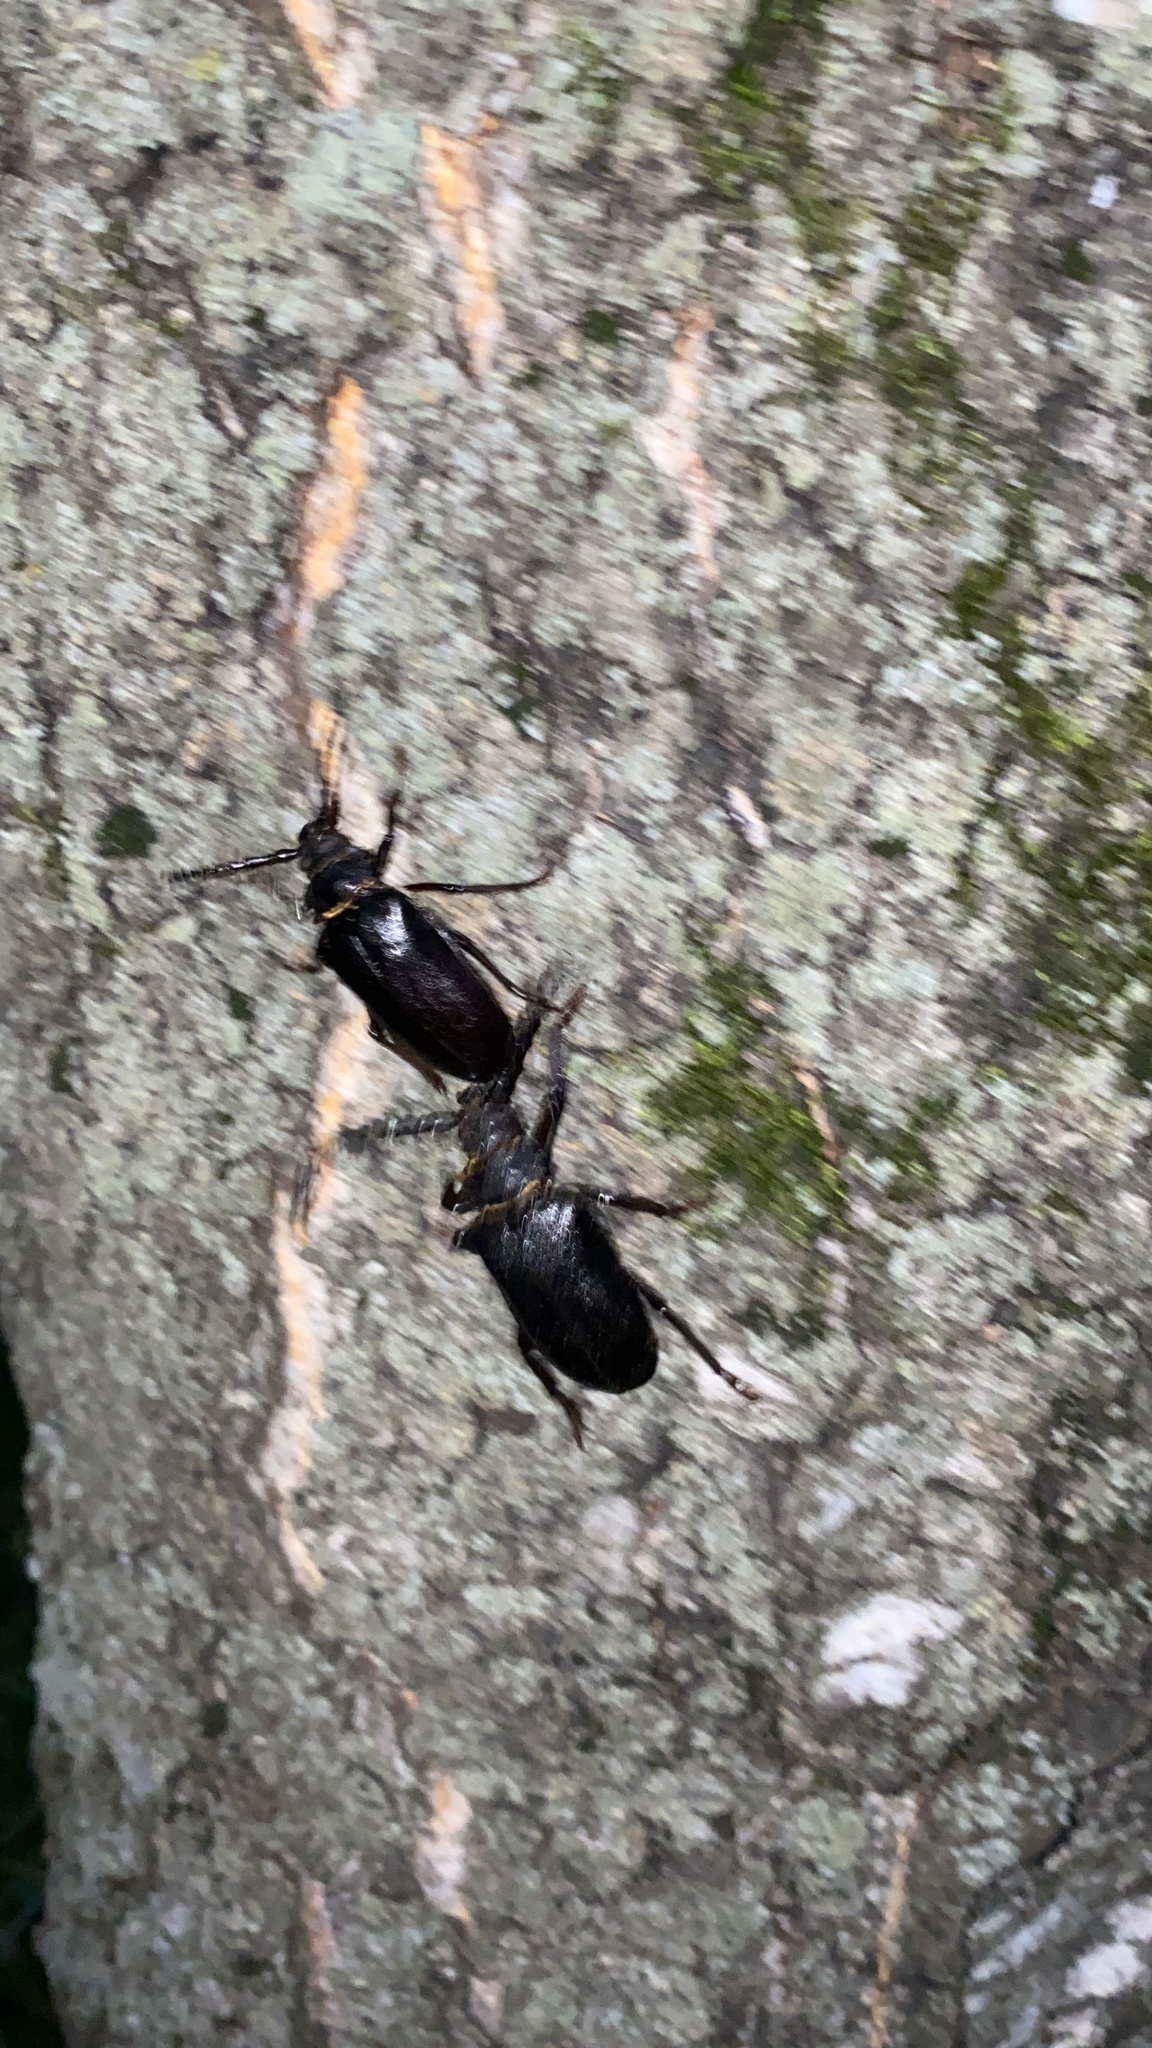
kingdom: Animalia
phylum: Arthropoda
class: Insecta
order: Coleoptera
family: Cerambycidae
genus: Prionus
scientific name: Prionus coriarius
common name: Tanner beetle
